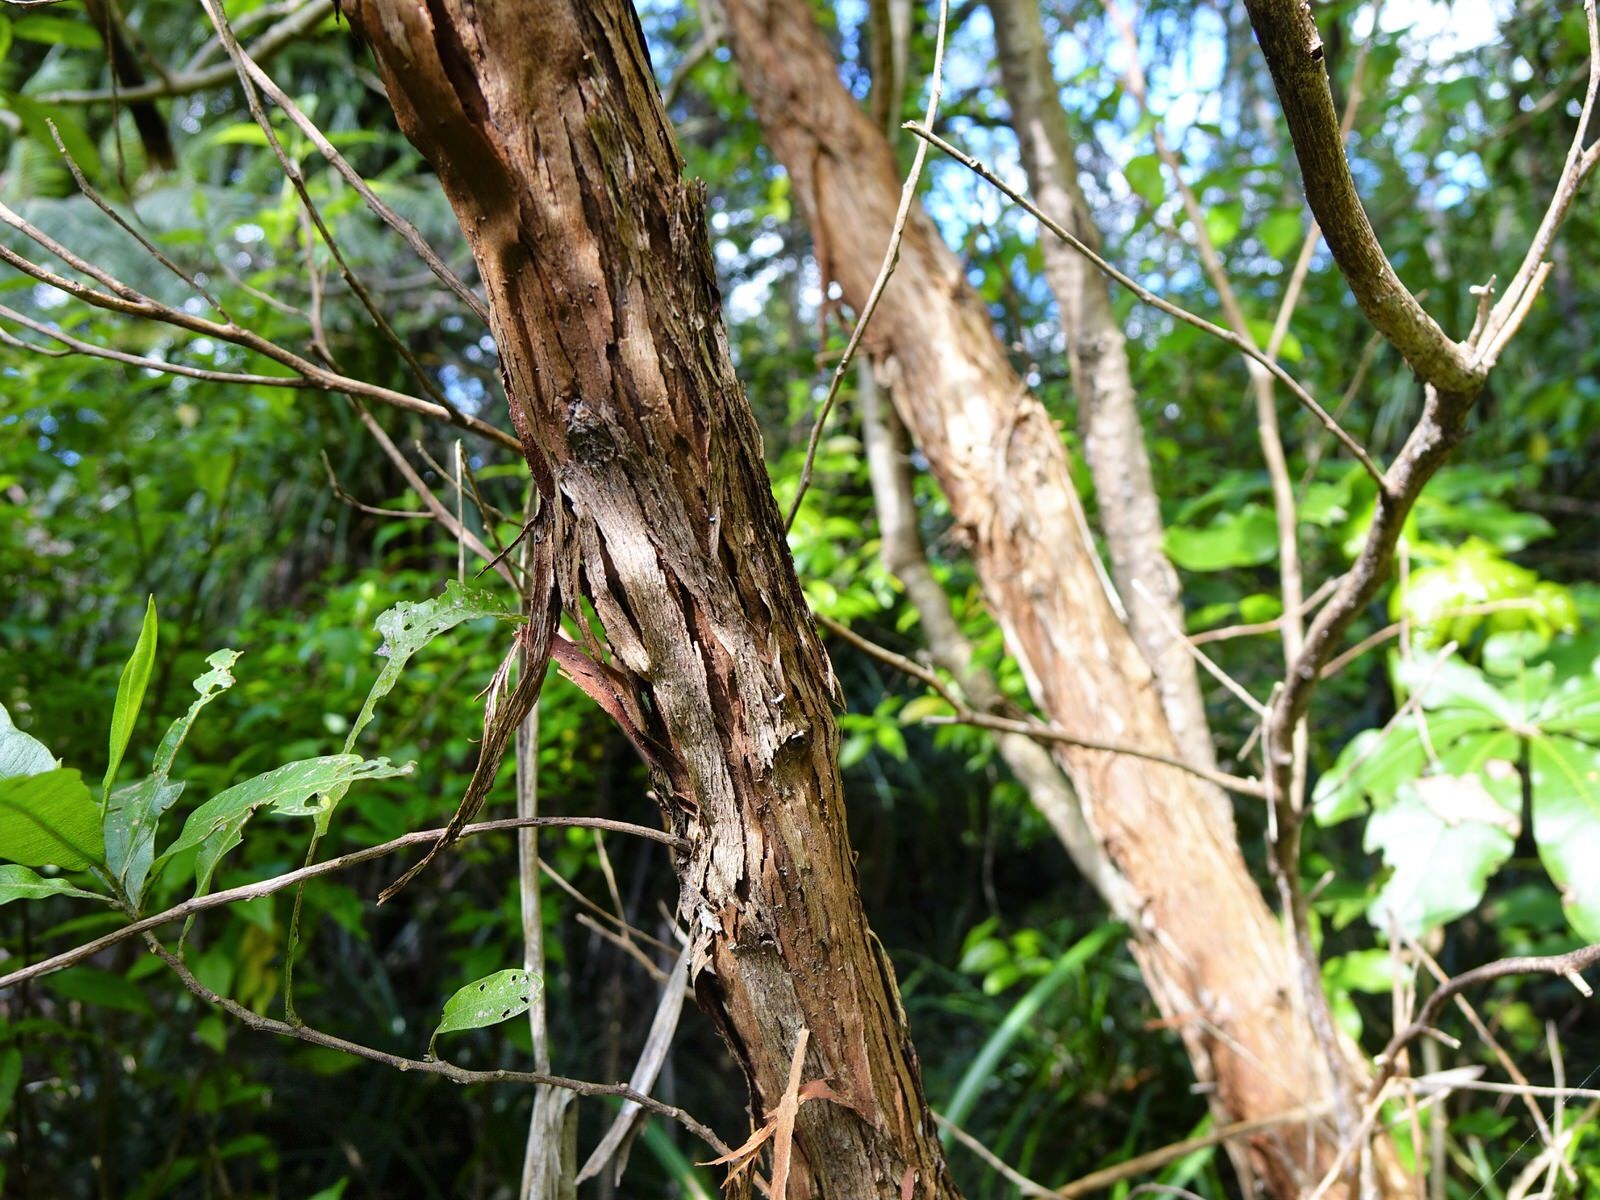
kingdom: Plantae
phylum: Tracheophyta
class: Magnoliopsida
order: Sapindales
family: Sapindaceae
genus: Dodonaea
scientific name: Dodonaea viscosa
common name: Hopbush
